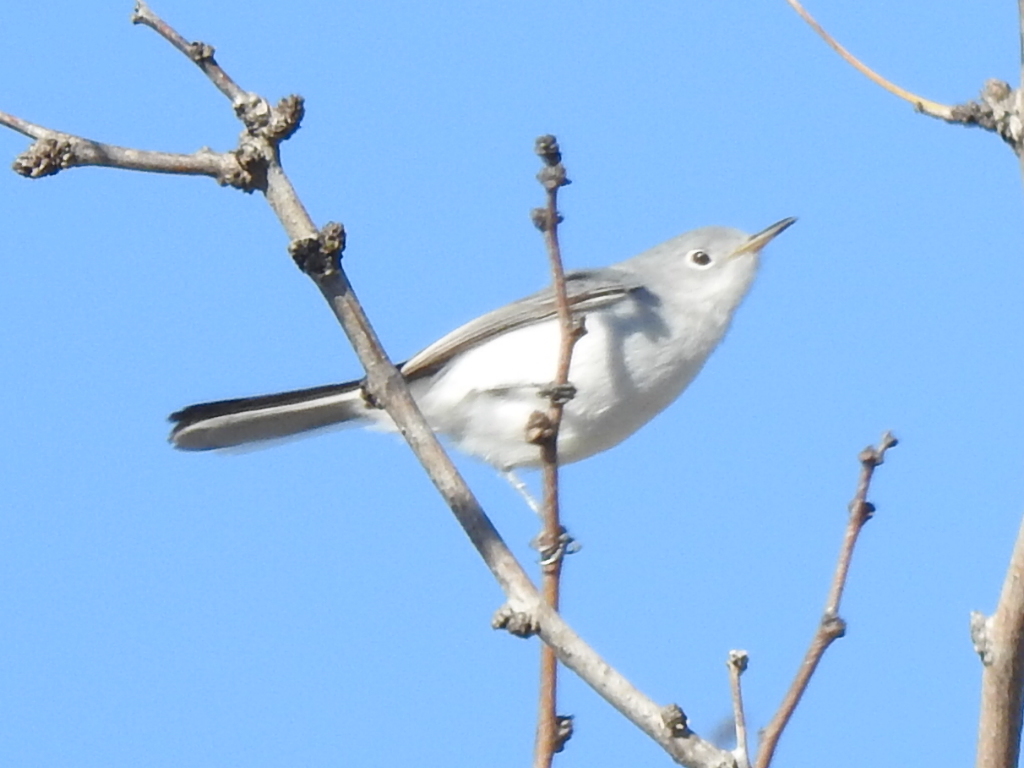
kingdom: Animalia
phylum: Chordata
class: Aves
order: Passeriformes
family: Polioptilidae
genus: Polioptila
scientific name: Polioptila caerulea
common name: Blue-gray gnatcatcher
